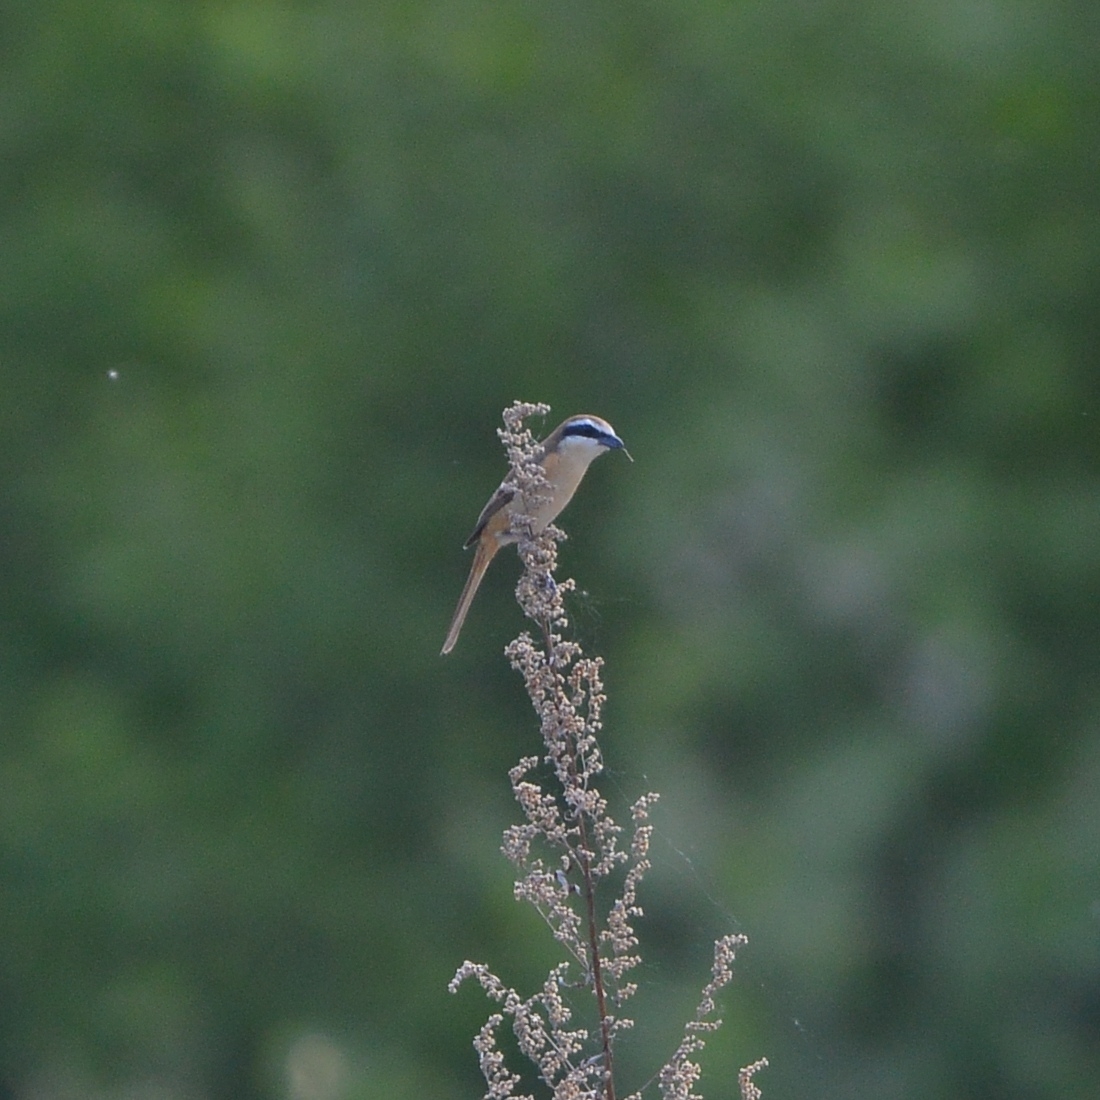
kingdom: Animalia
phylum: Chordata
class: Aves
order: Passeriformes
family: Laniidae
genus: Lanius
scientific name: Lanius cristatus
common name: Brown shrike
